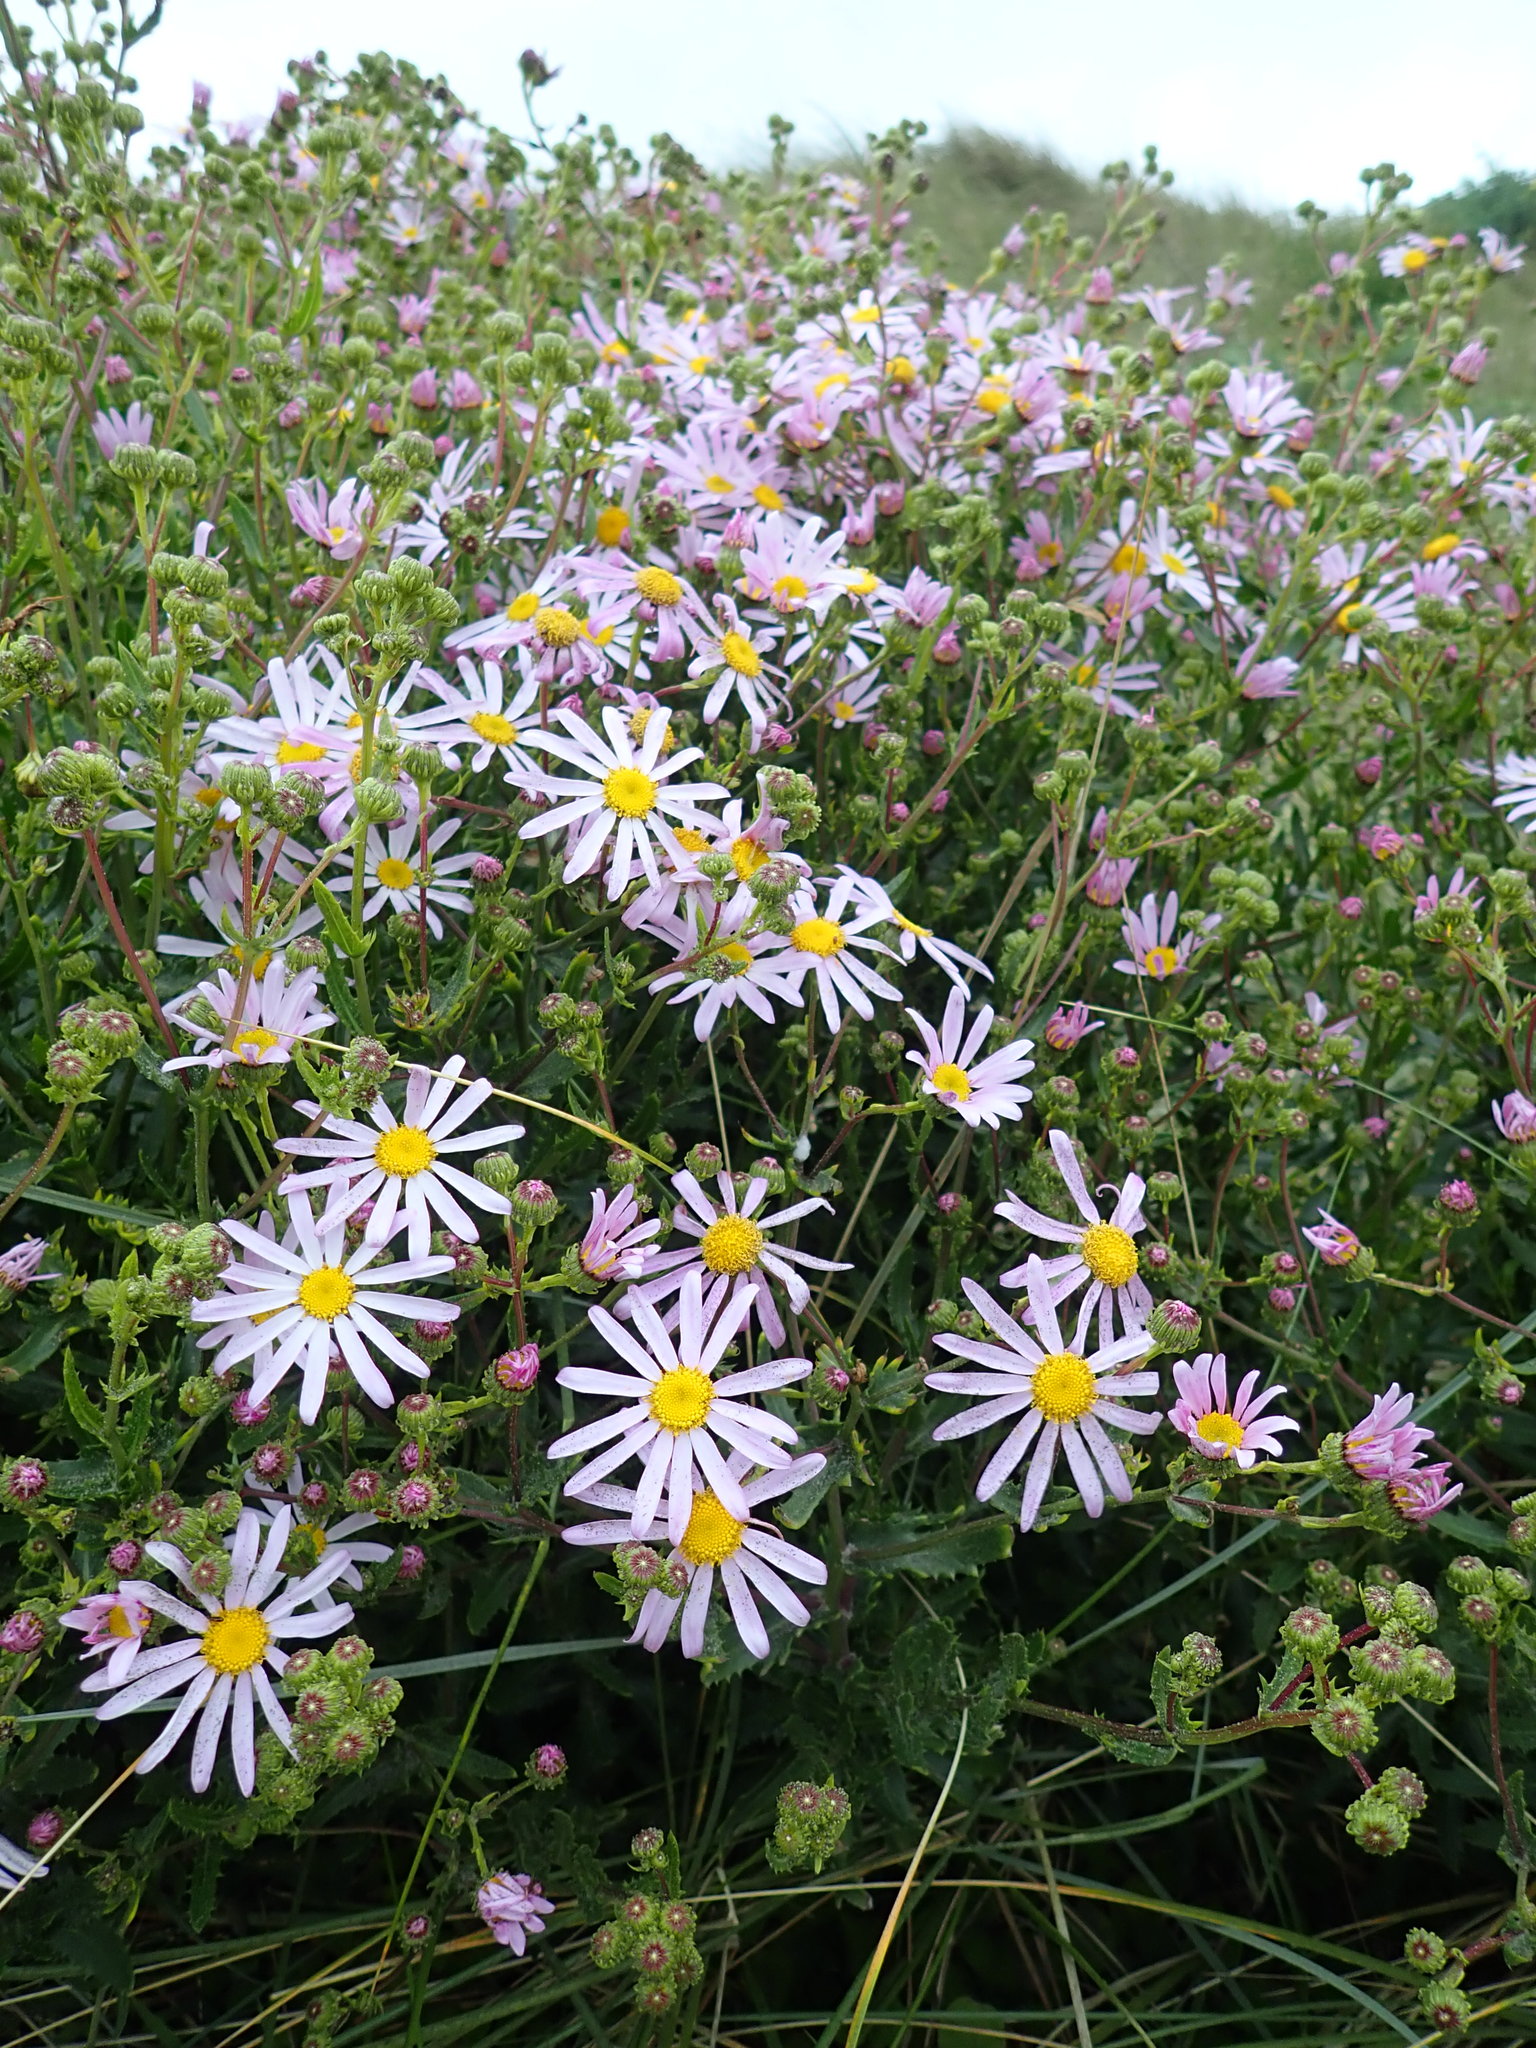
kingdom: Plantae
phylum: Tracheophyta
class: Magnoliopsida
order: Asterales
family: Asteraceae
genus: Senecio
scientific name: Senecio glastifolius
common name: Woad-leaved ragwort
